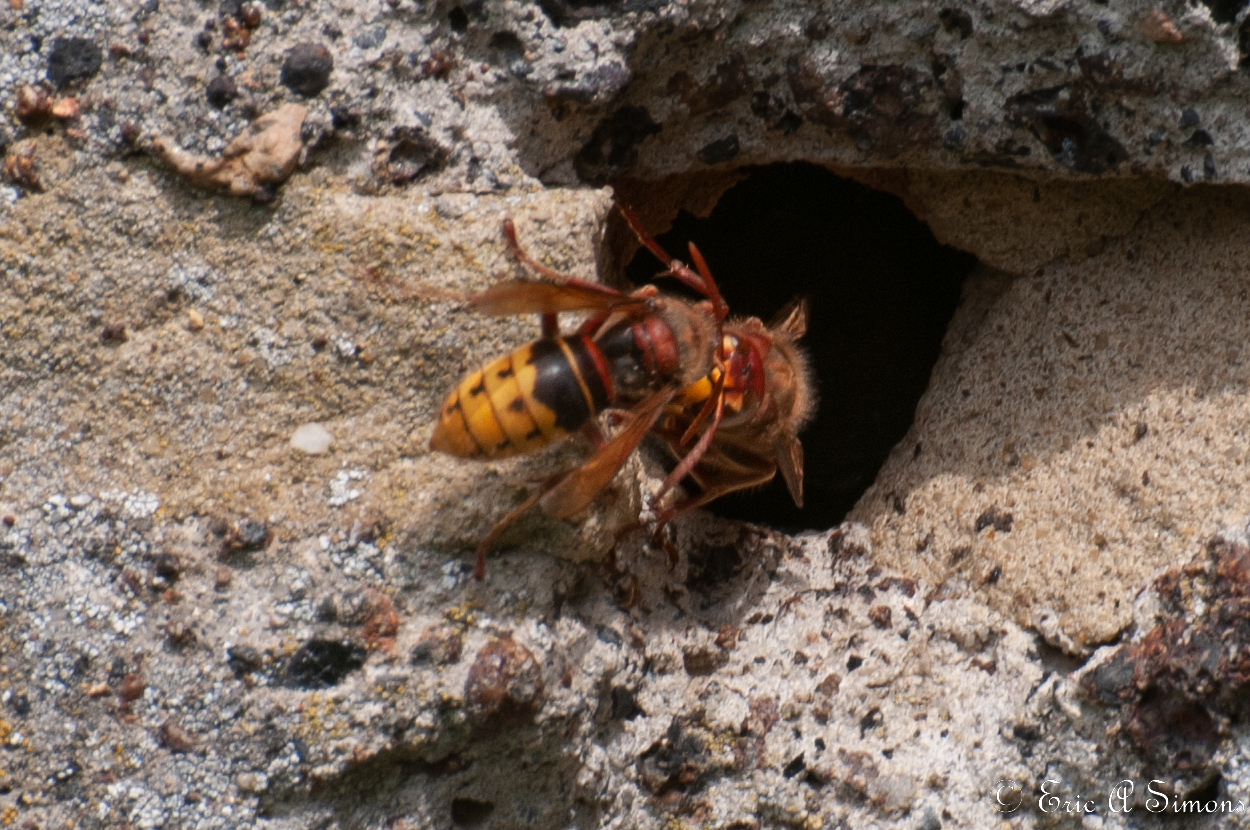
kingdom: Animalia
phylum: Arthropoda
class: Insecta
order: Hymenoptera
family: Vespidae
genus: Vespa
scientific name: Vespa crabro
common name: Hornet
